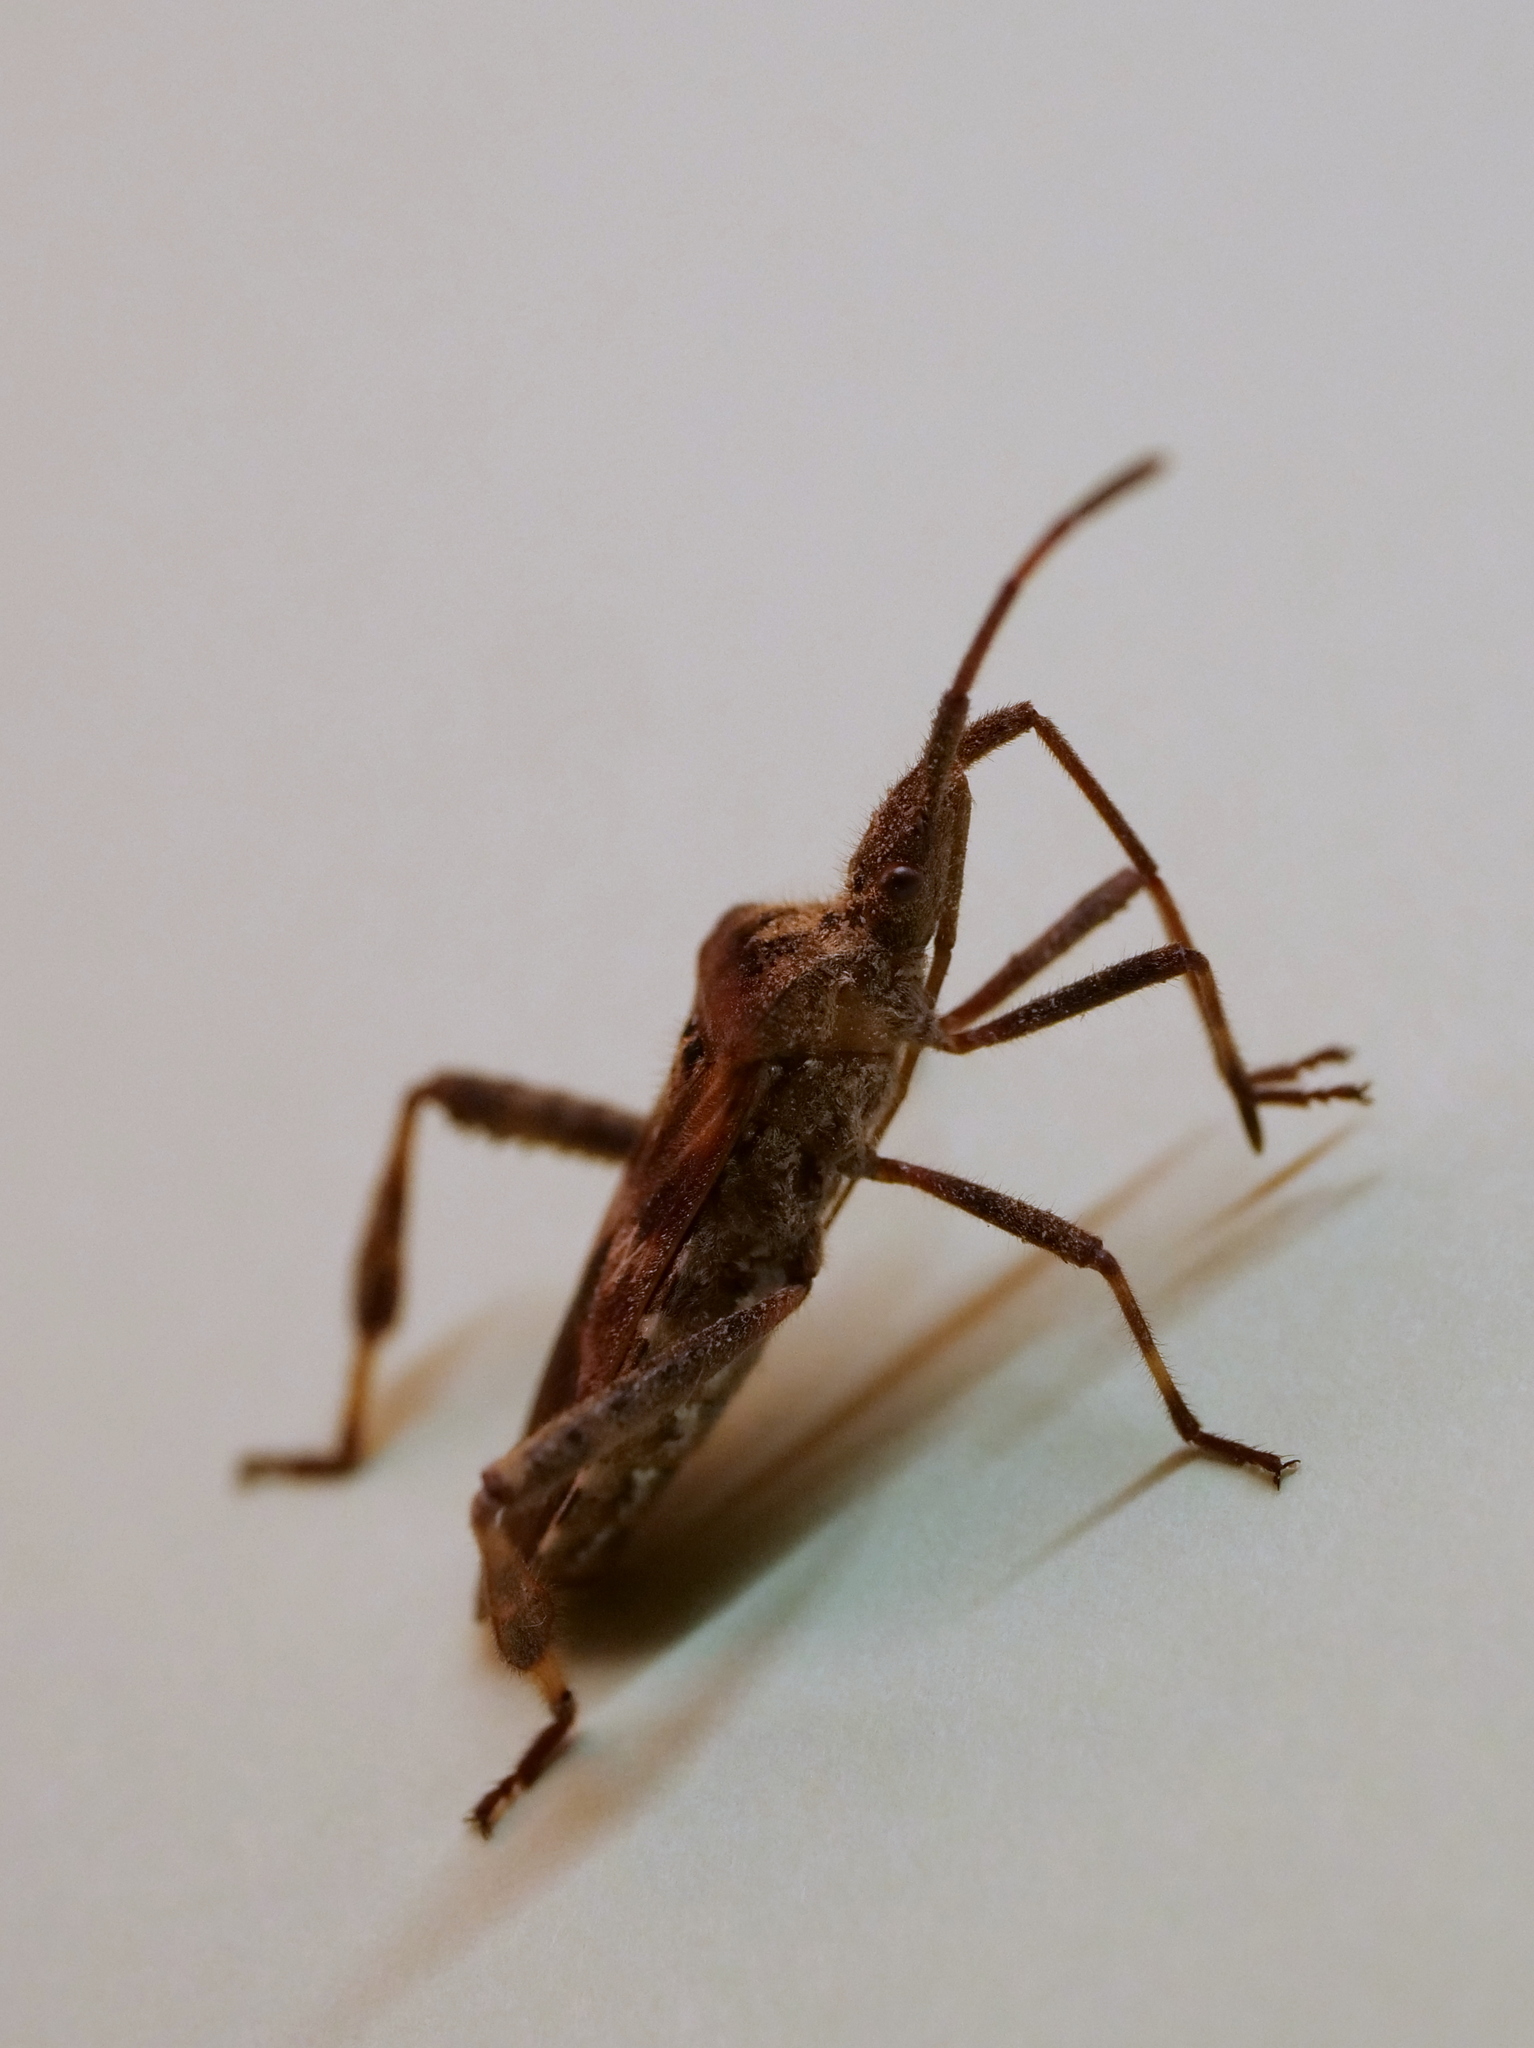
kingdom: Animalia
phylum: Arthropoda
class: Insecta
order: Hemiptera
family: Coreidae
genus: Leptoglossus
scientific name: Leptoglossus occidentalis
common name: Western conifer-seed bug
